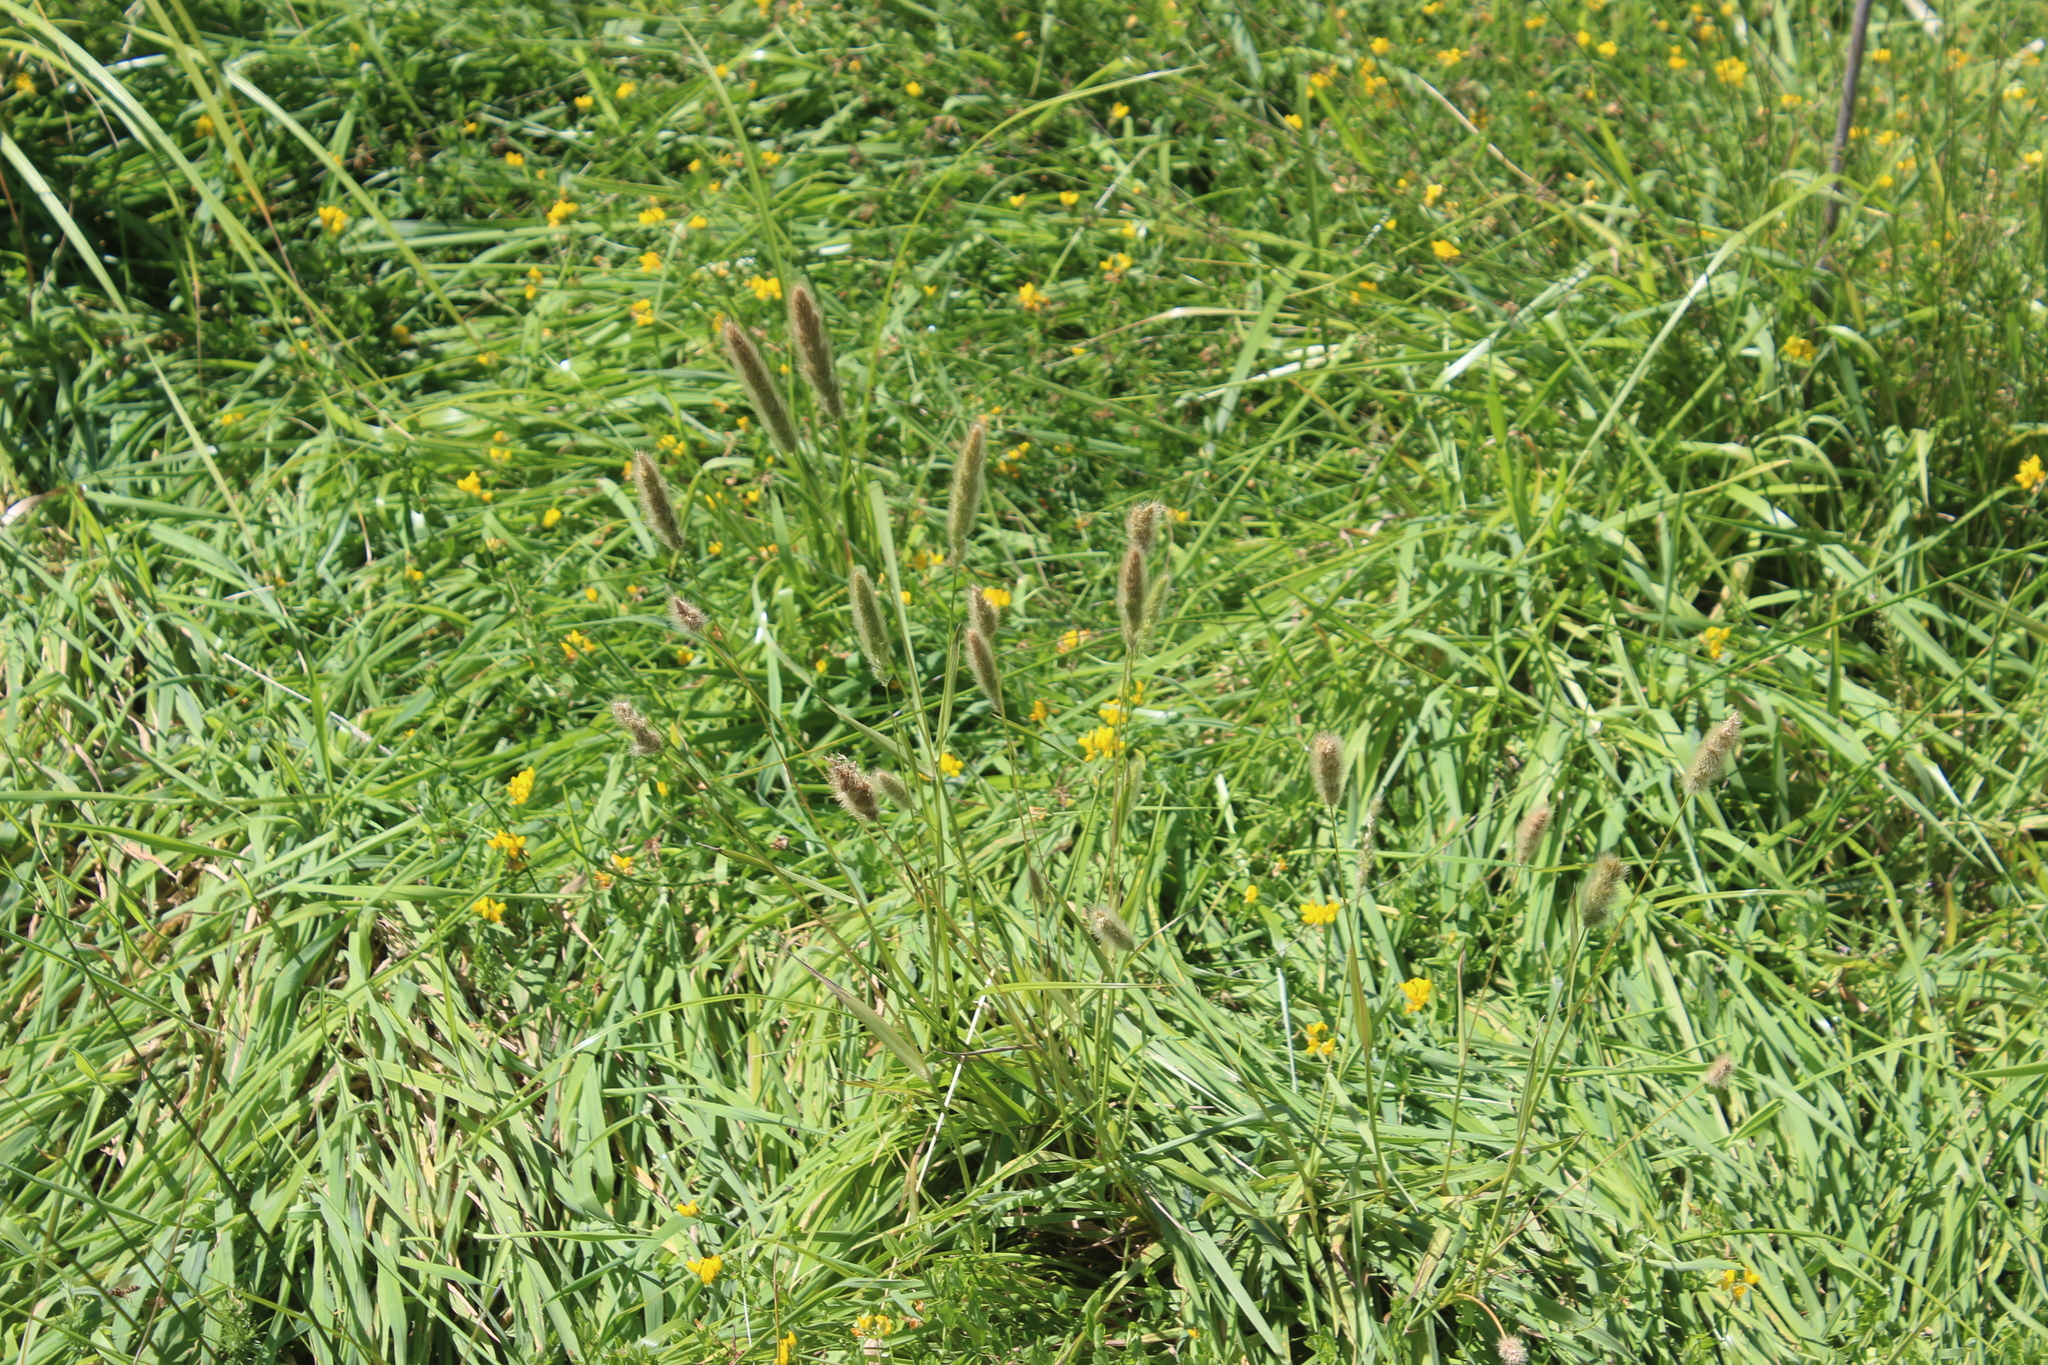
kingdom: Plantae
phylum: Tracheophyta
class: Liliopsida
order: Poales
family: Poaceae
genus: Polypogon
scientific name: Polypogon monspeliensis
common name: Annual rabbitsfoot grass
